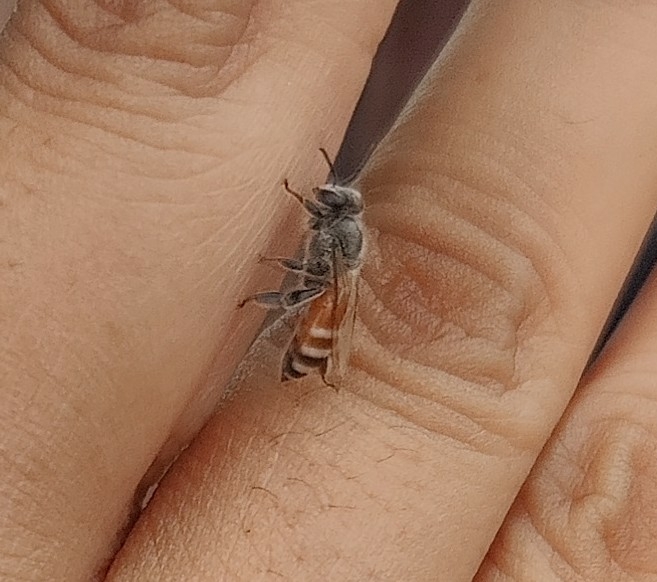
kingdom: Animalia
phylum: Arthropoda
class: Insecta
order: Hymenoptera
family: Apidae
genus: Apis
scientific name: Apis florea
